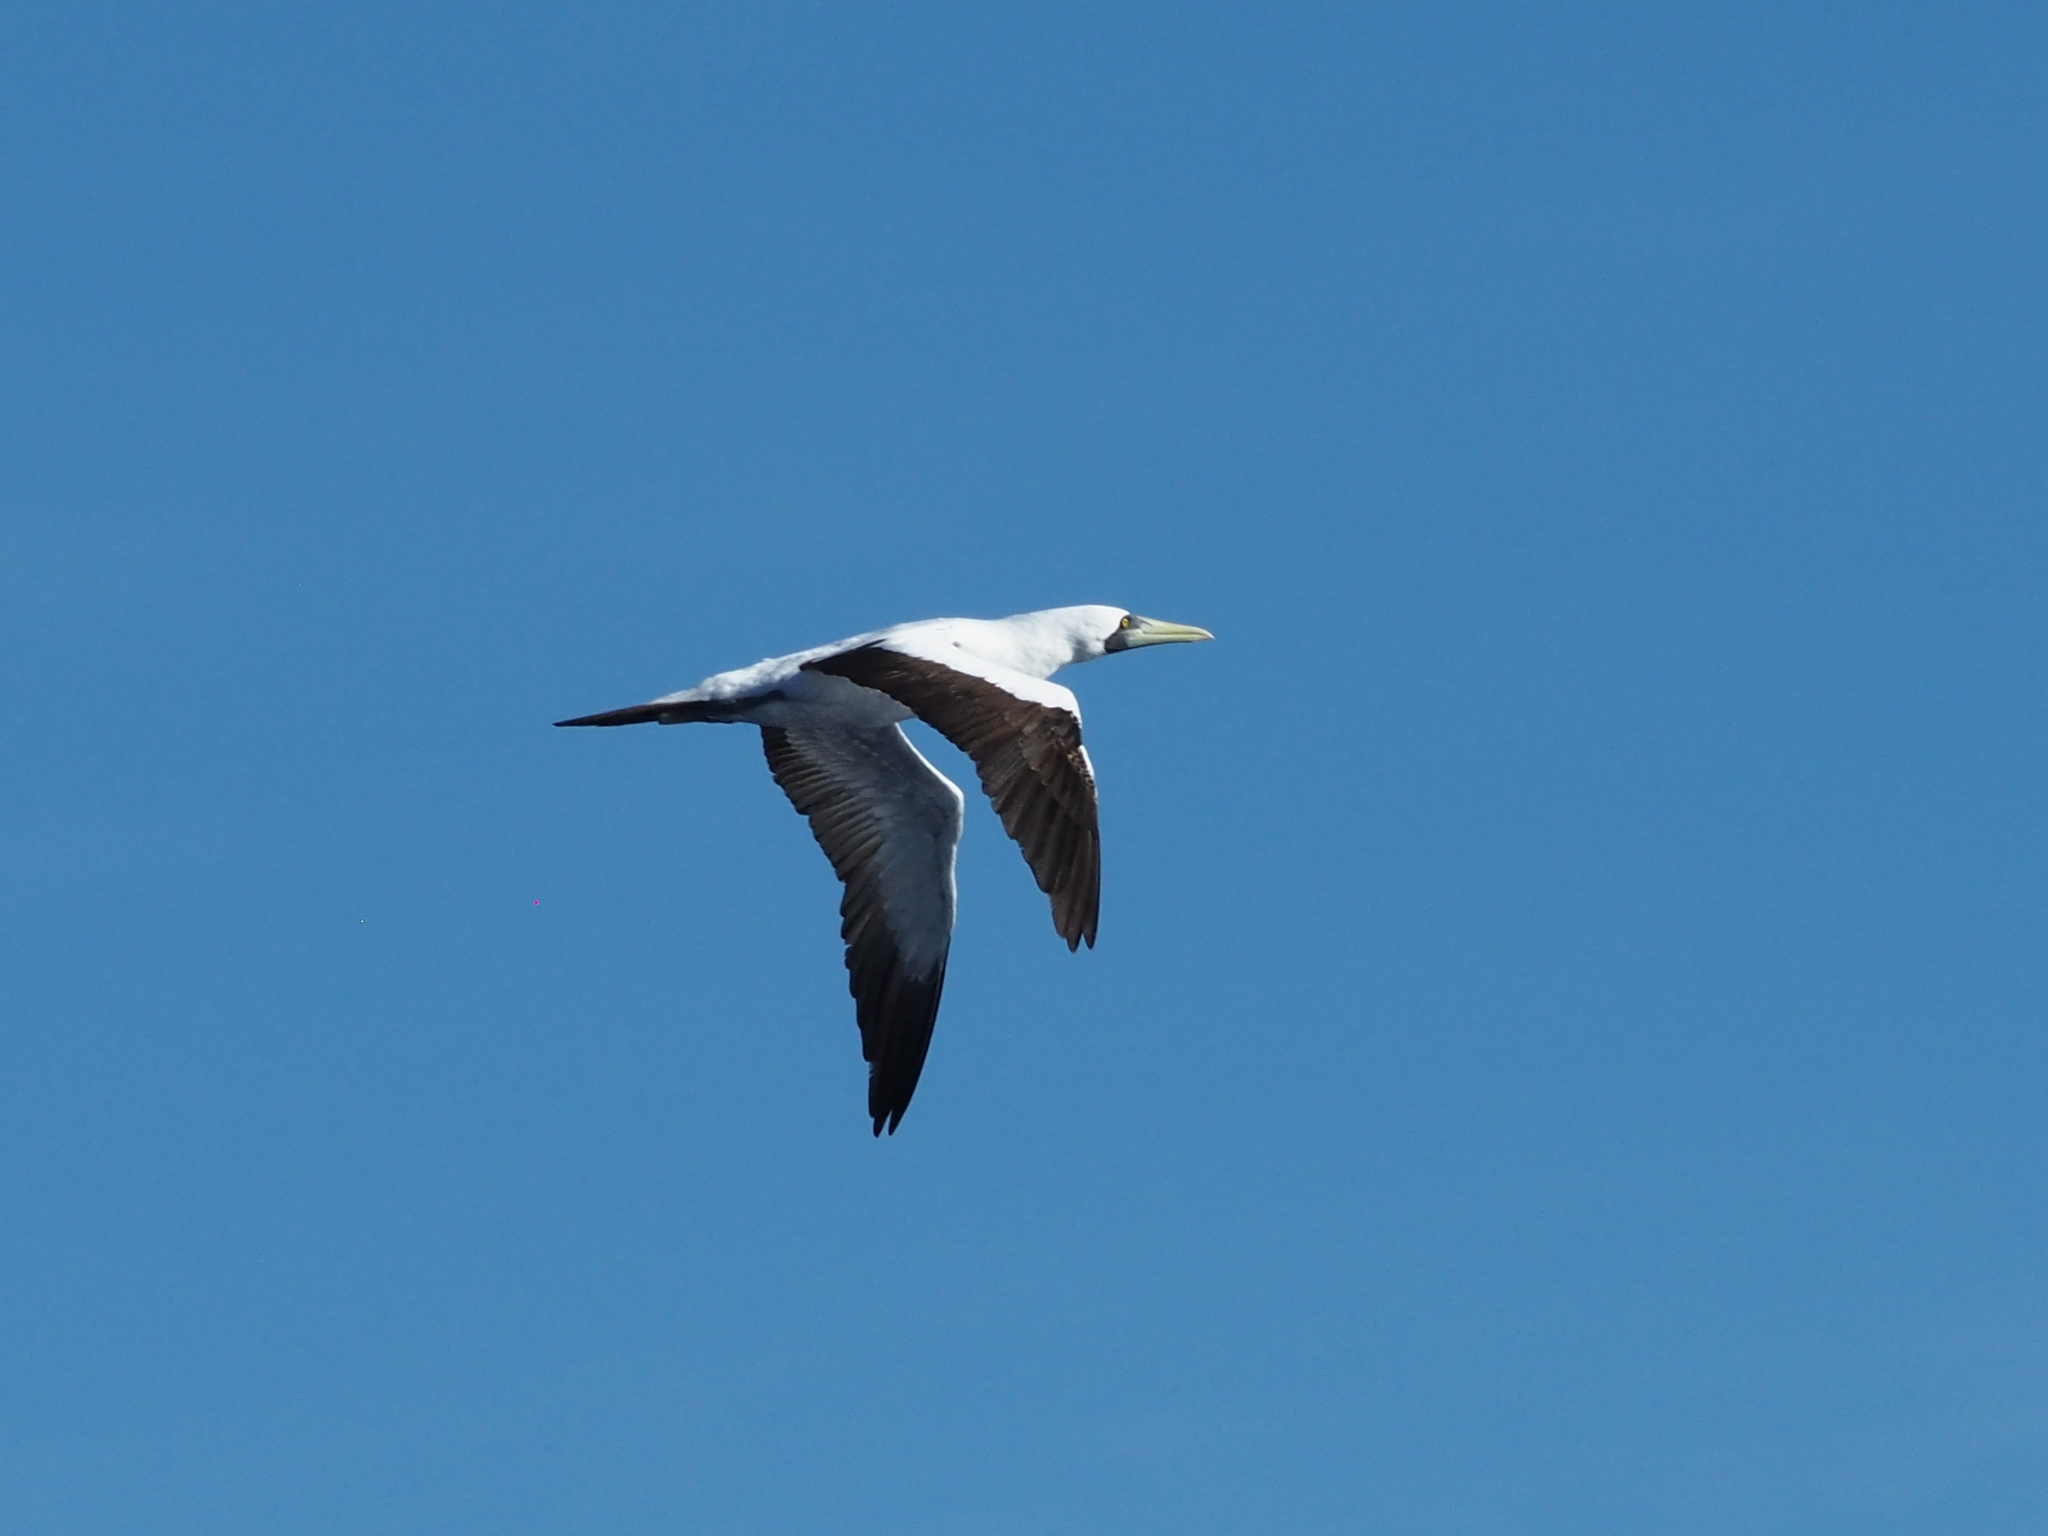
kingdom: Animalia
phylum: Chordata
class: Aves
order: Suliformes
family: Sulidae
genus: Sula
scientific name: Sula dactylatra
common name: Masked booby
